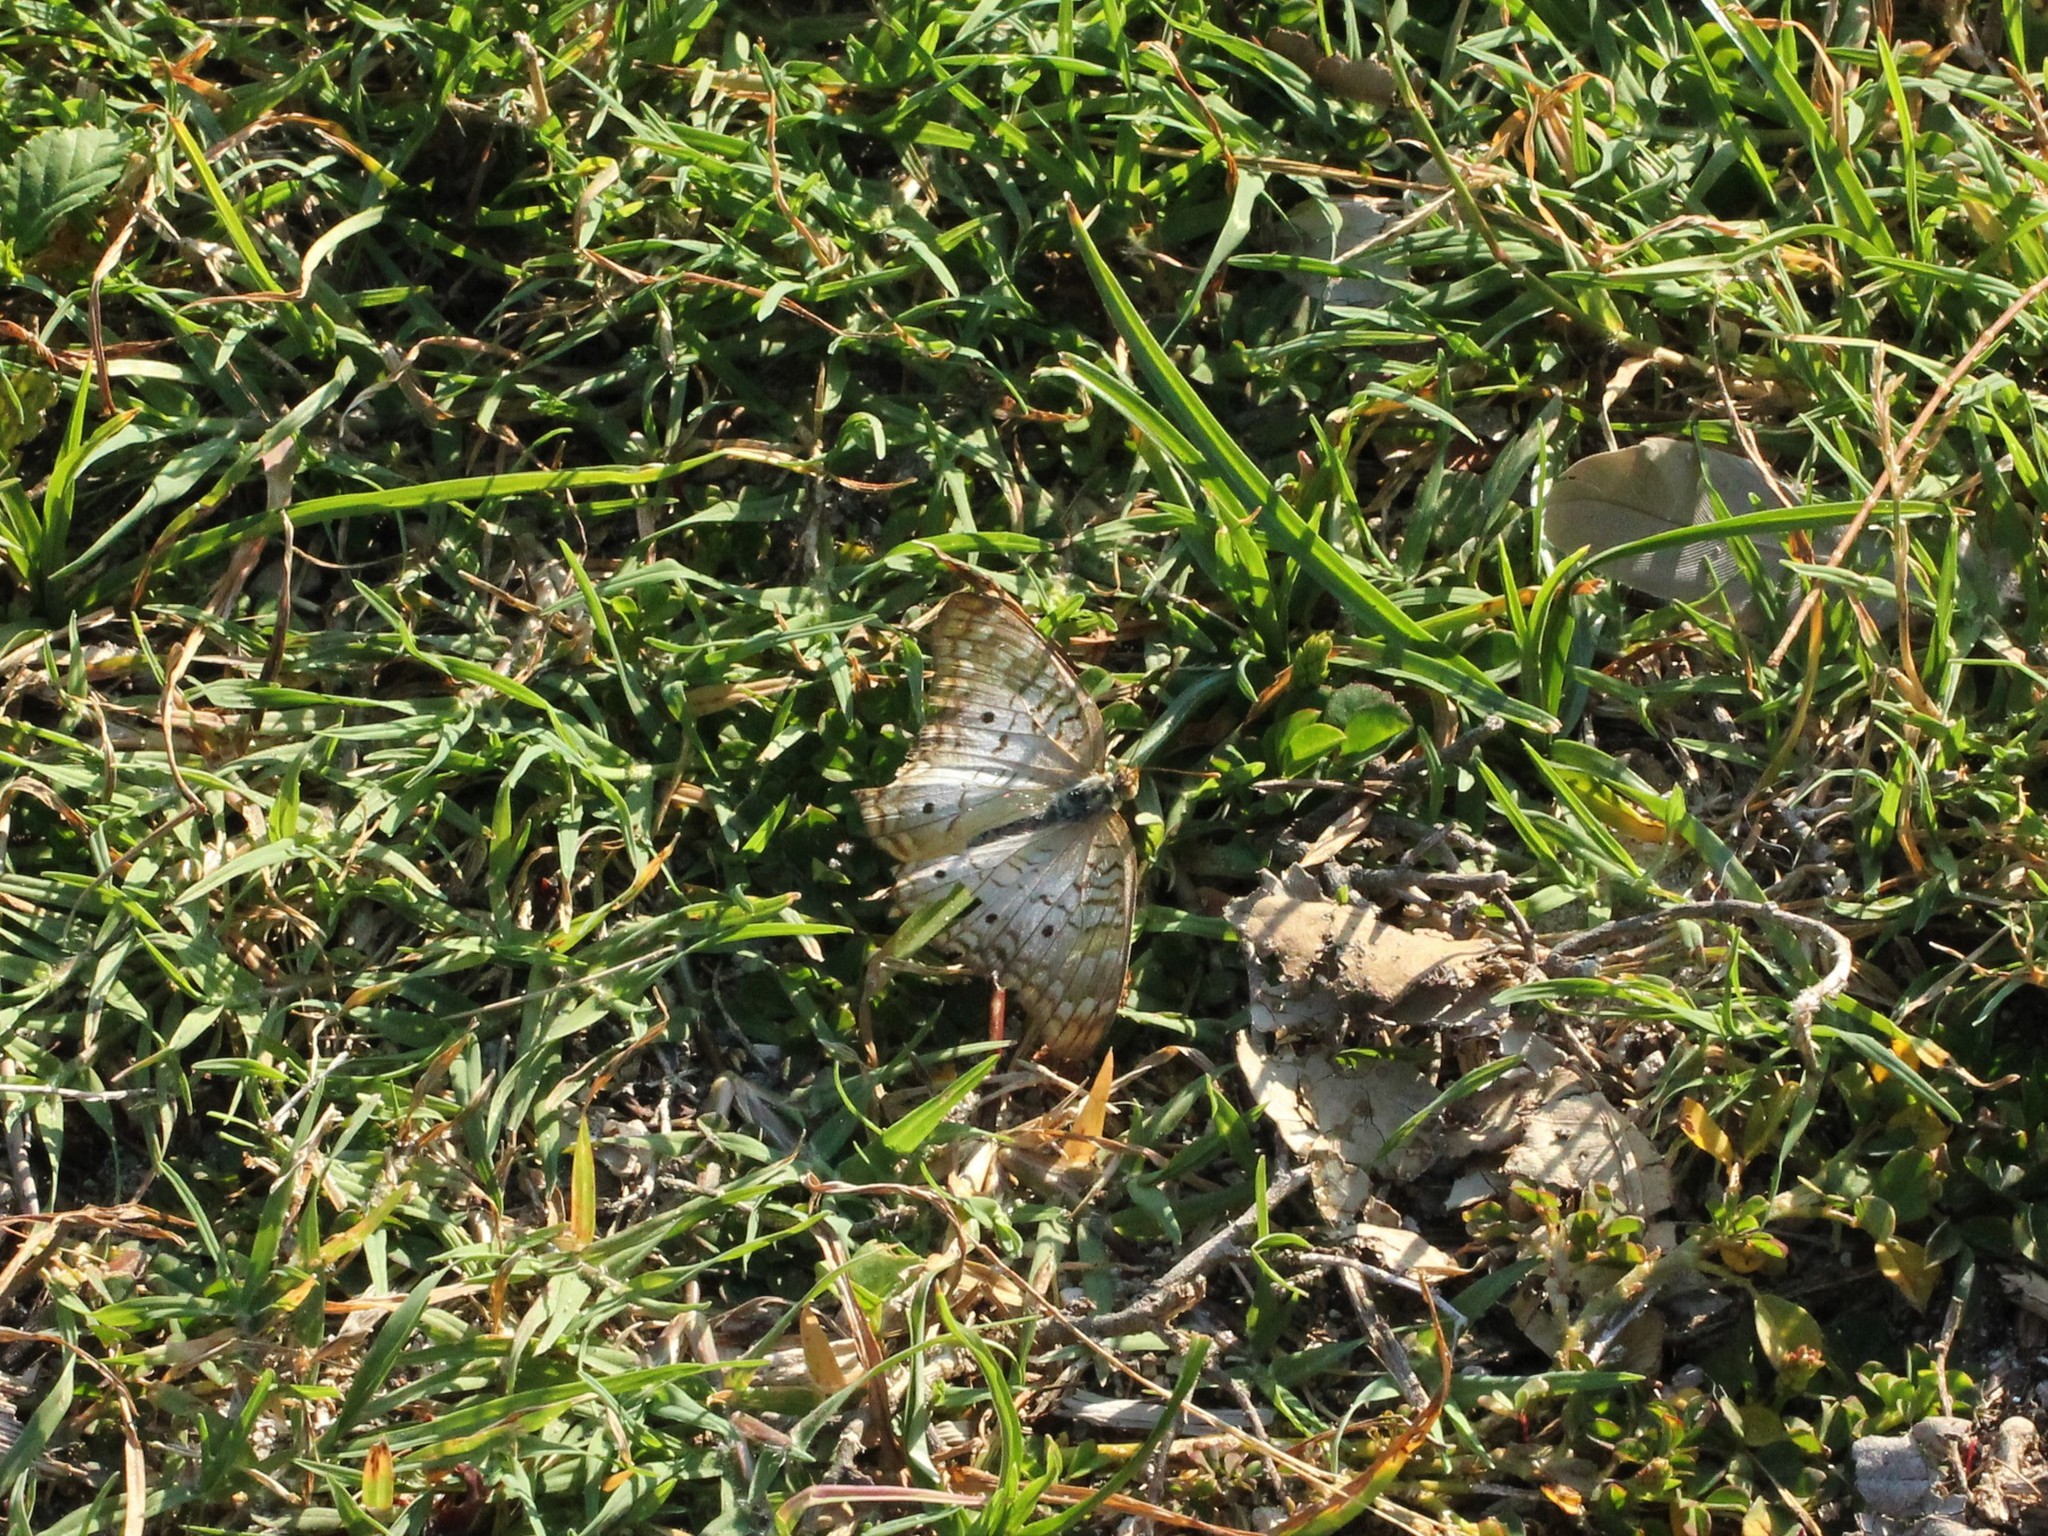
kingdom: Animalia
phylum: Arthropoda
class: Insecta
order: Lepidoptera
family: Nymphalidae
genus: Anartia
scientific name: Anartia jatrophae
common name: White peacock
